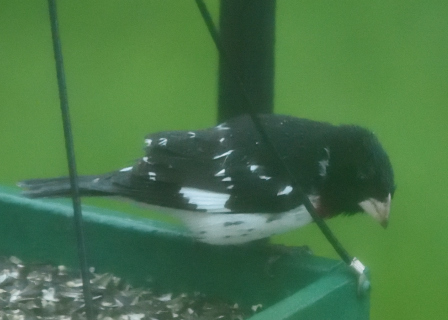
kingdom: Animalia
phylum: Chordata
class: Aves
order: Passeriformes
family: Cardinalidae
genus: Pheucticus
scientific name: Pheucticus ludovicianus
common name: Rose-breasted grosbeak
